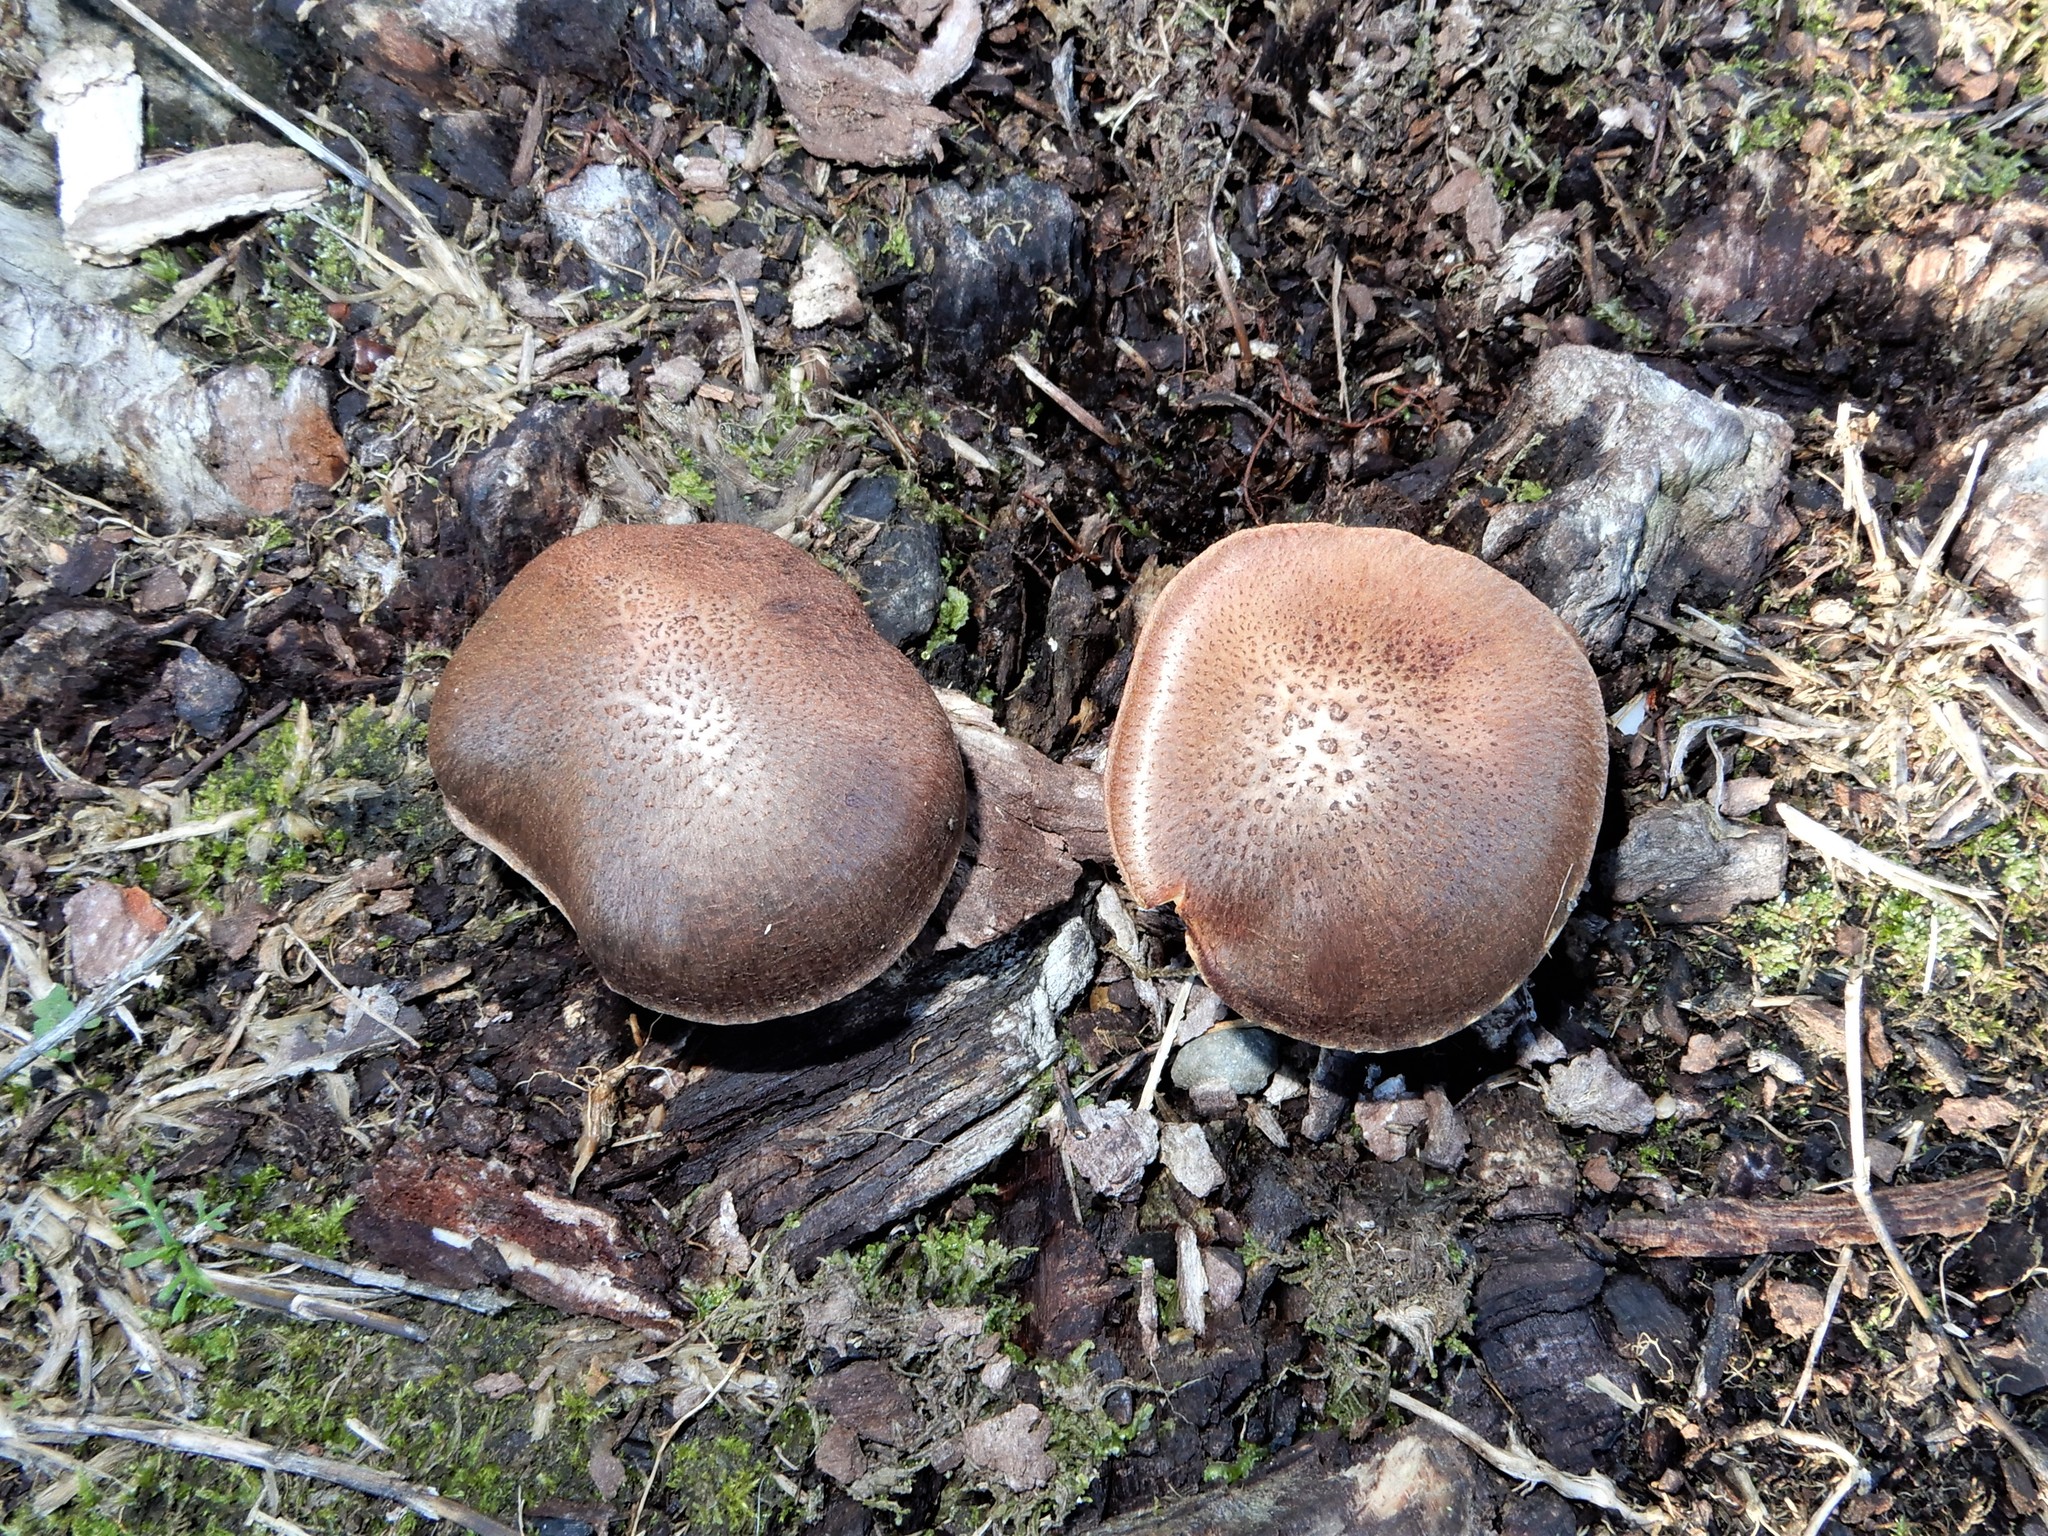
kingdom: Fungi
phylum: Basidiomycota
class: Agaricomycetes
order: Agaricales
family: Hymenogastraceae
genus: Gymnopilus
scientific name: Gymnopilus purpuratus
